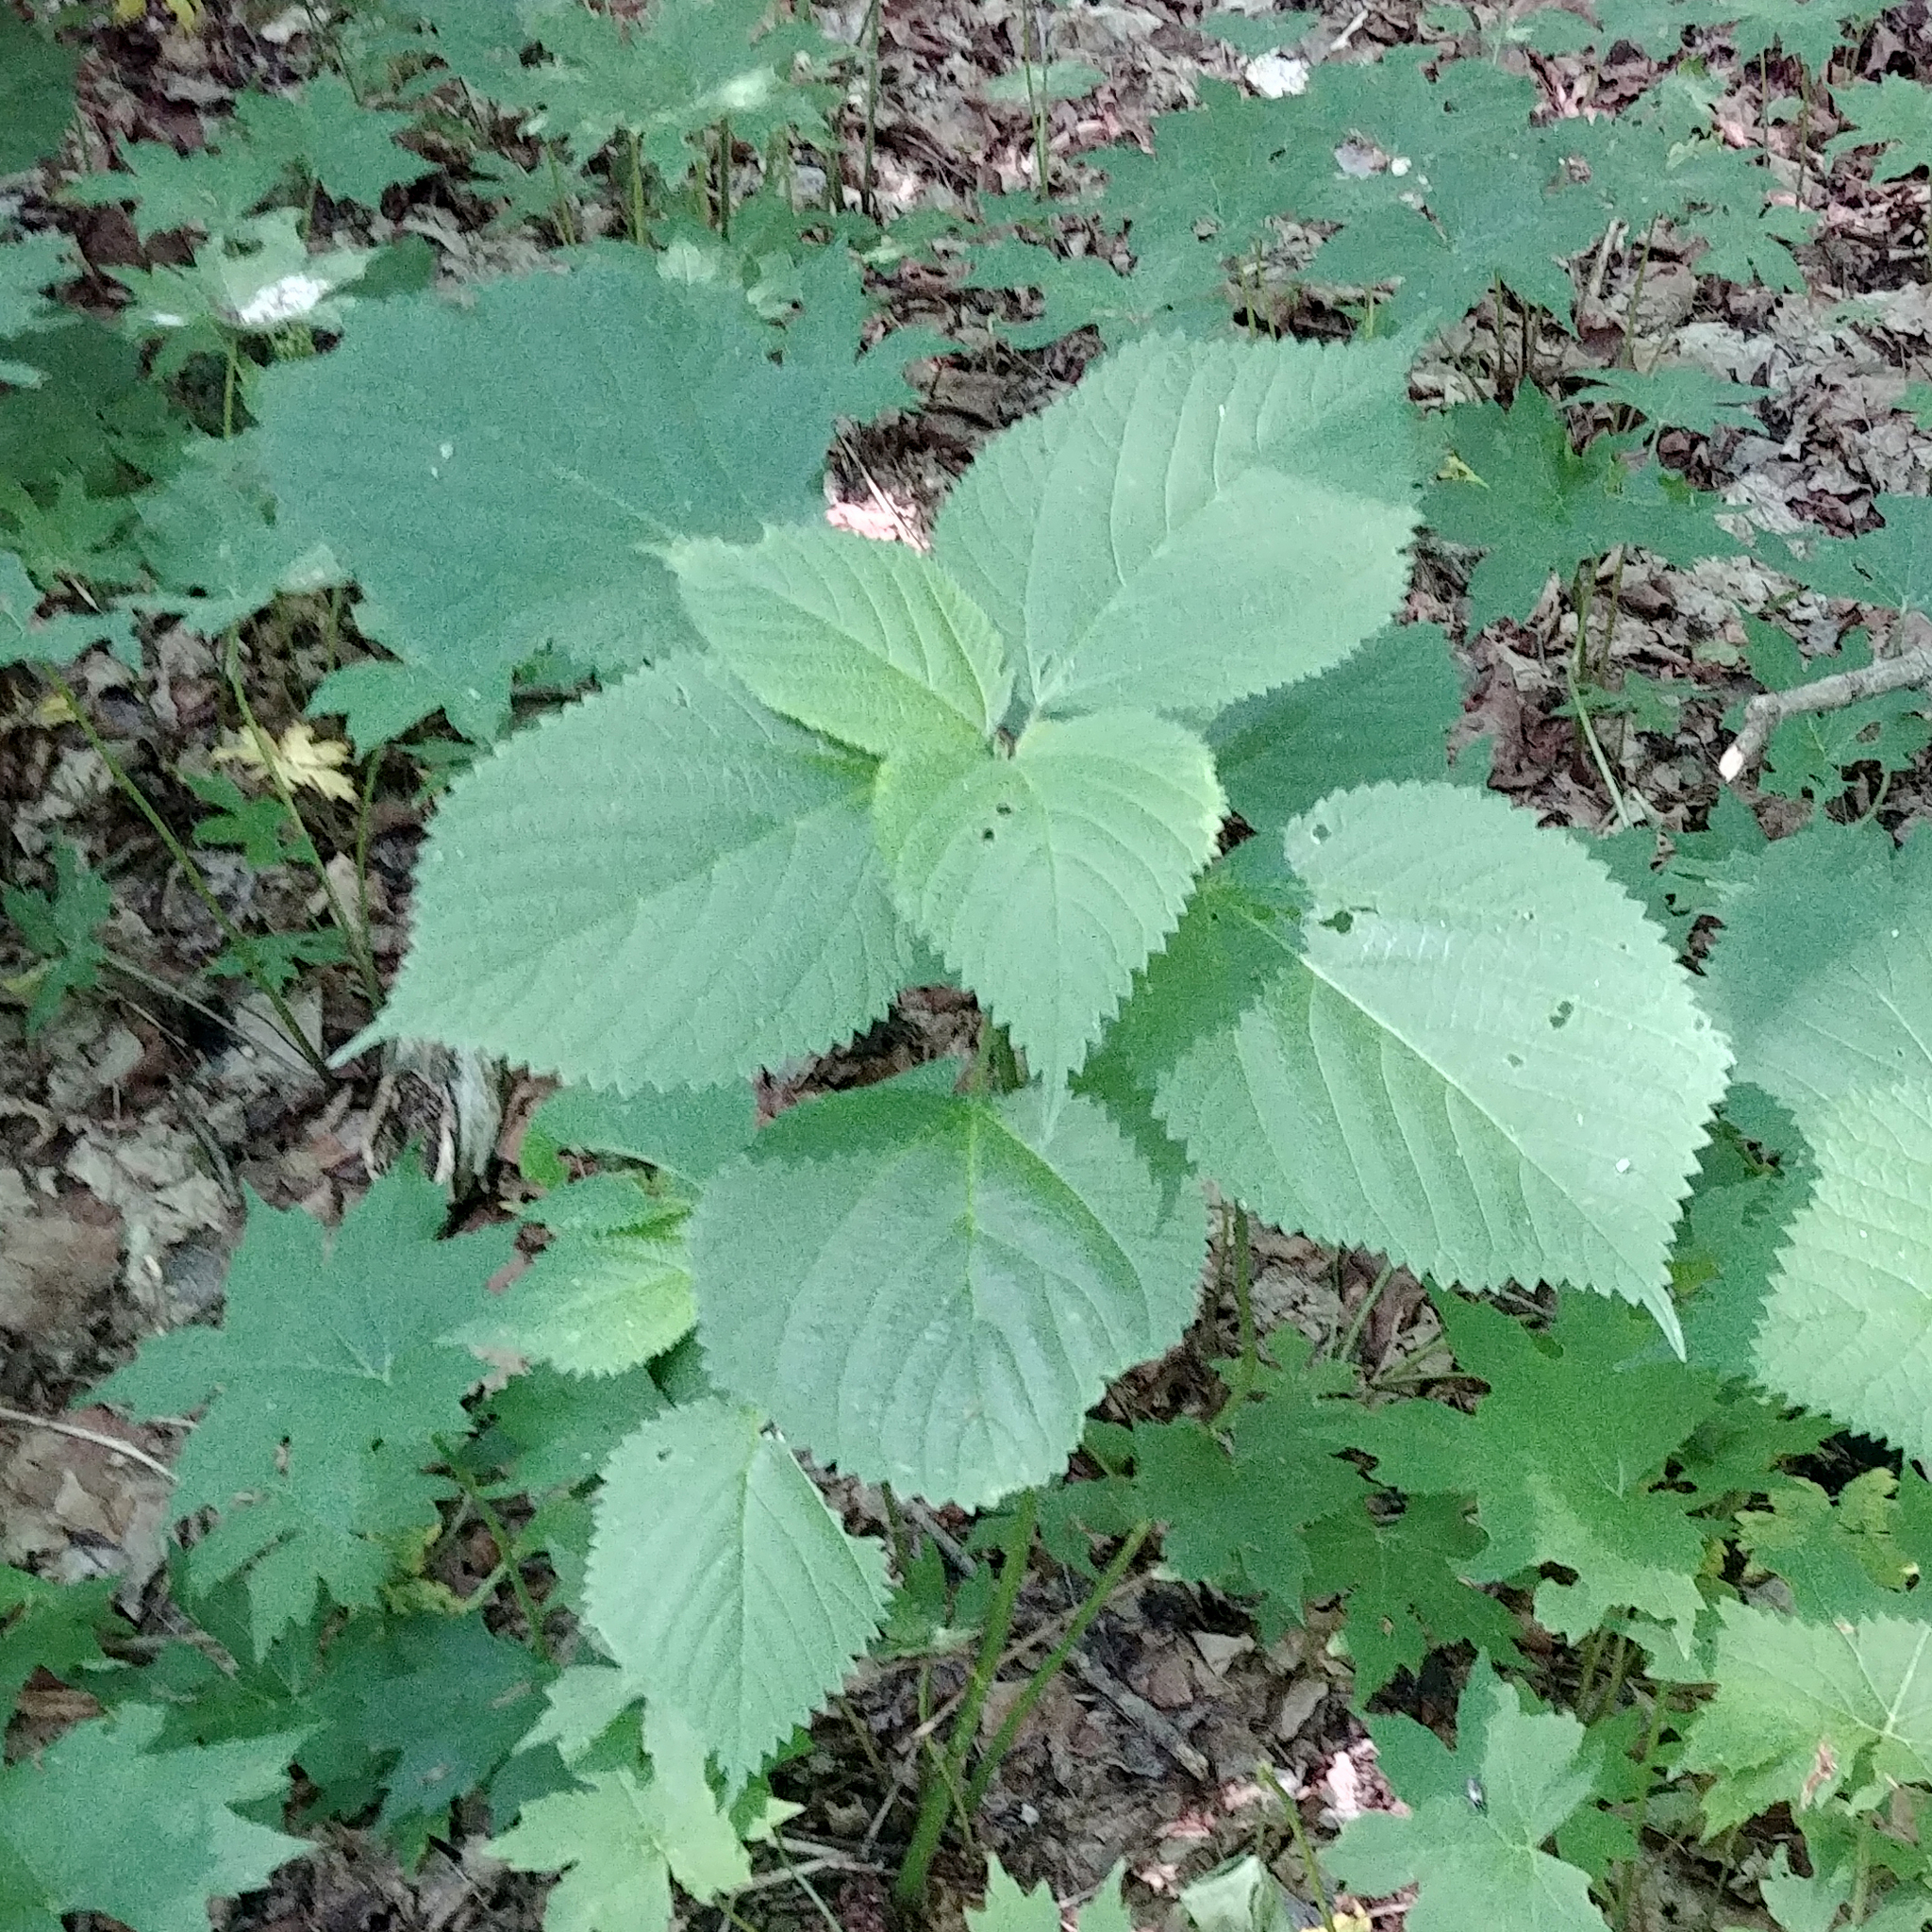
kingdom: Plantae
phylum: Tracheophyta
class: Magnoliopsida
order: Rosales
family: Urticaceae
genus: Laportea
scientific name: Laportea canadensis
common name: Canada nettle
